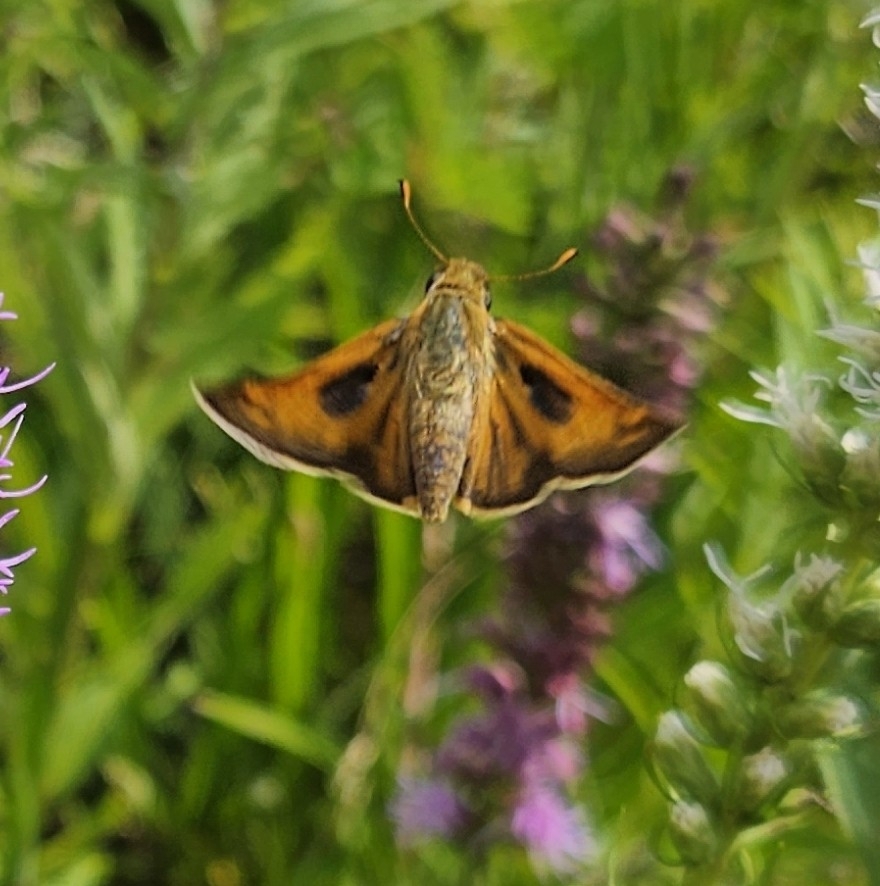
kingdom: Animalia
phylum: Arthropoda
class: Insecta
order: Lepidoptera
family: Hesperiidae
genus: Atalopedes
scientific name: Atalopedes
